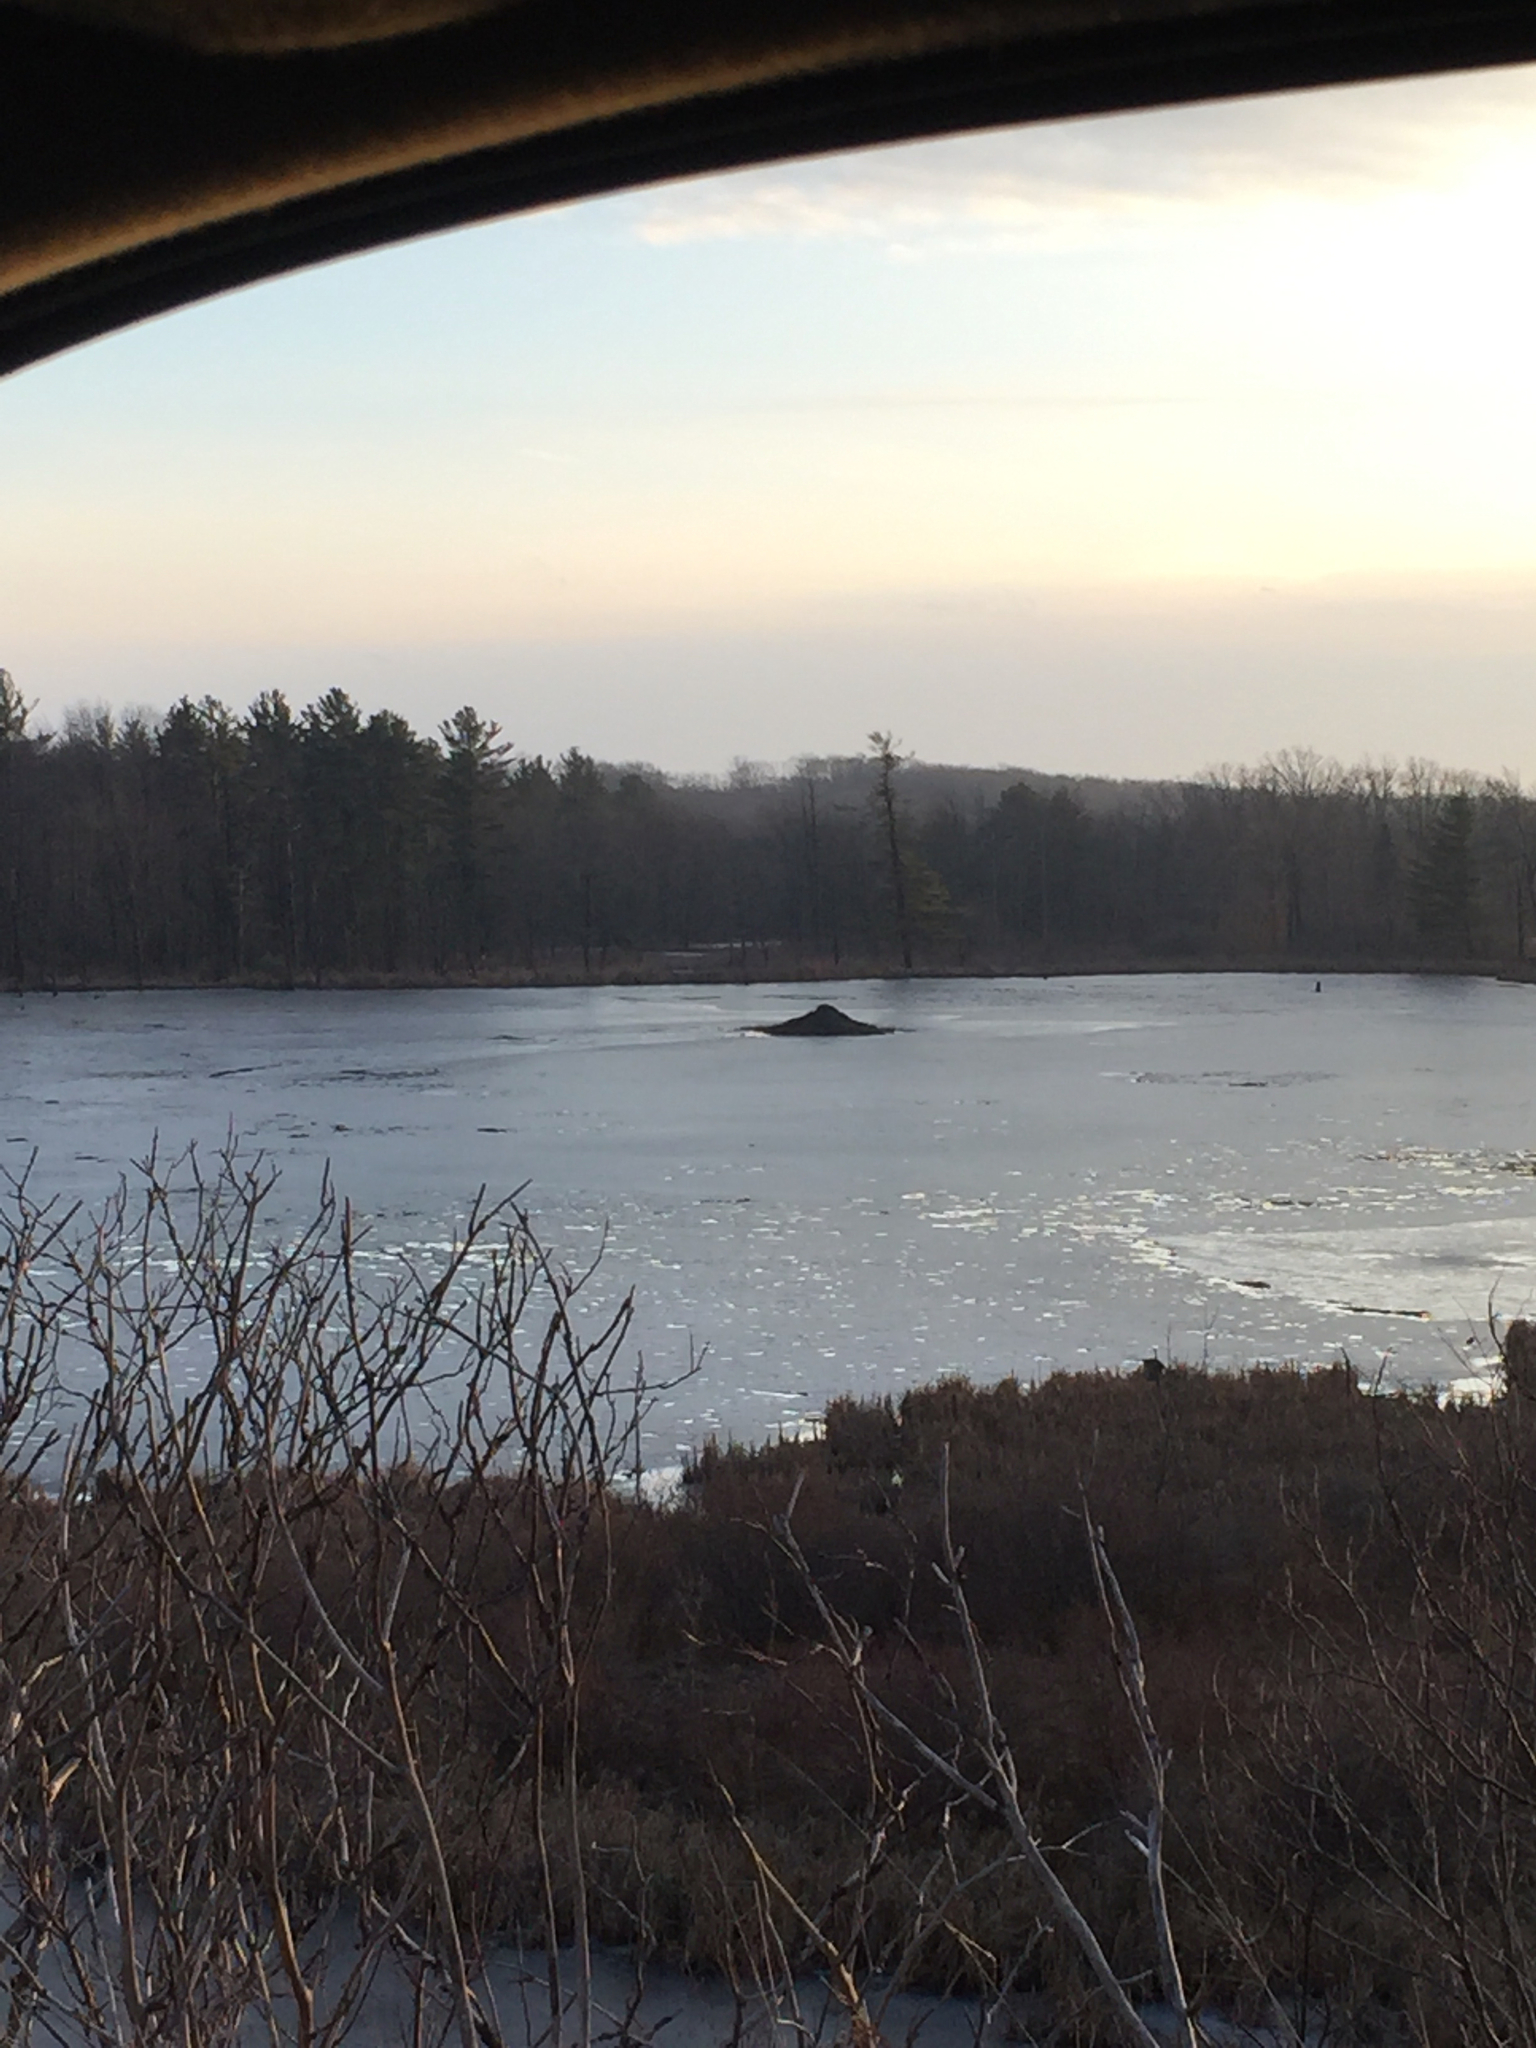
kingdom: Animalia
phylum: Chordata
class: Mammalia
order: Rodentia
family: Castoridae
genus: Castor
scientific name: Castor canadensis
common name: American beaver
